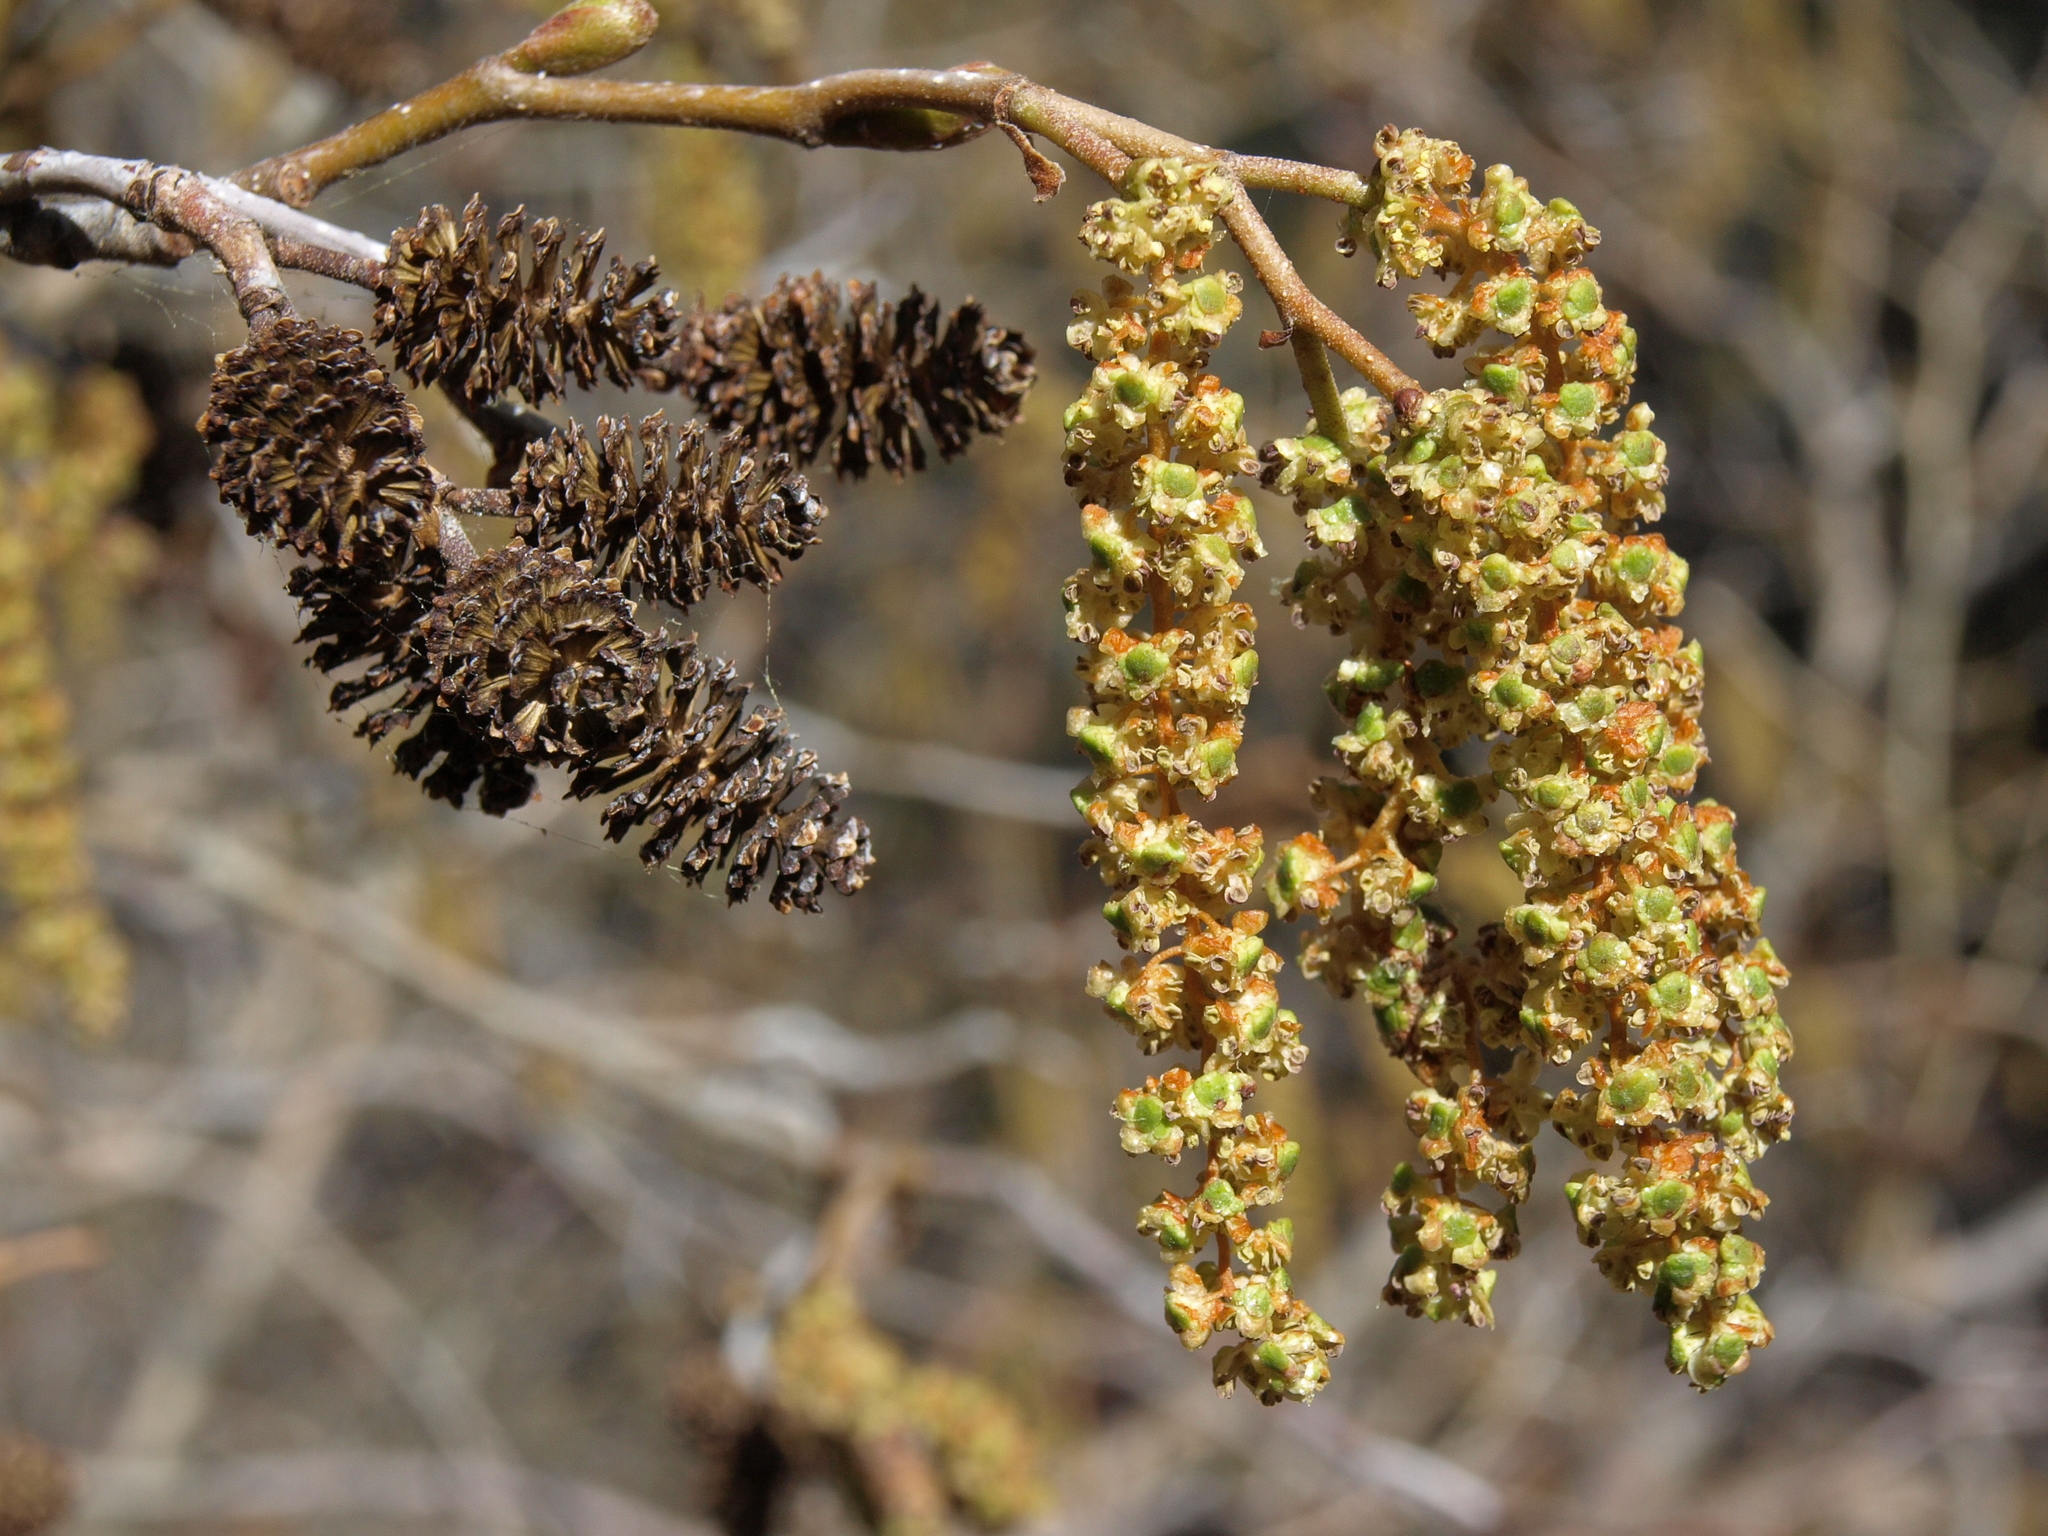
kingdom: Plantae
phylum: Tracheophyta
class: Magnoliopsida
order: Fagales
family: Betulaceae
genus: Alnus
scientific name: Alnus incana
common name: Grey alder
